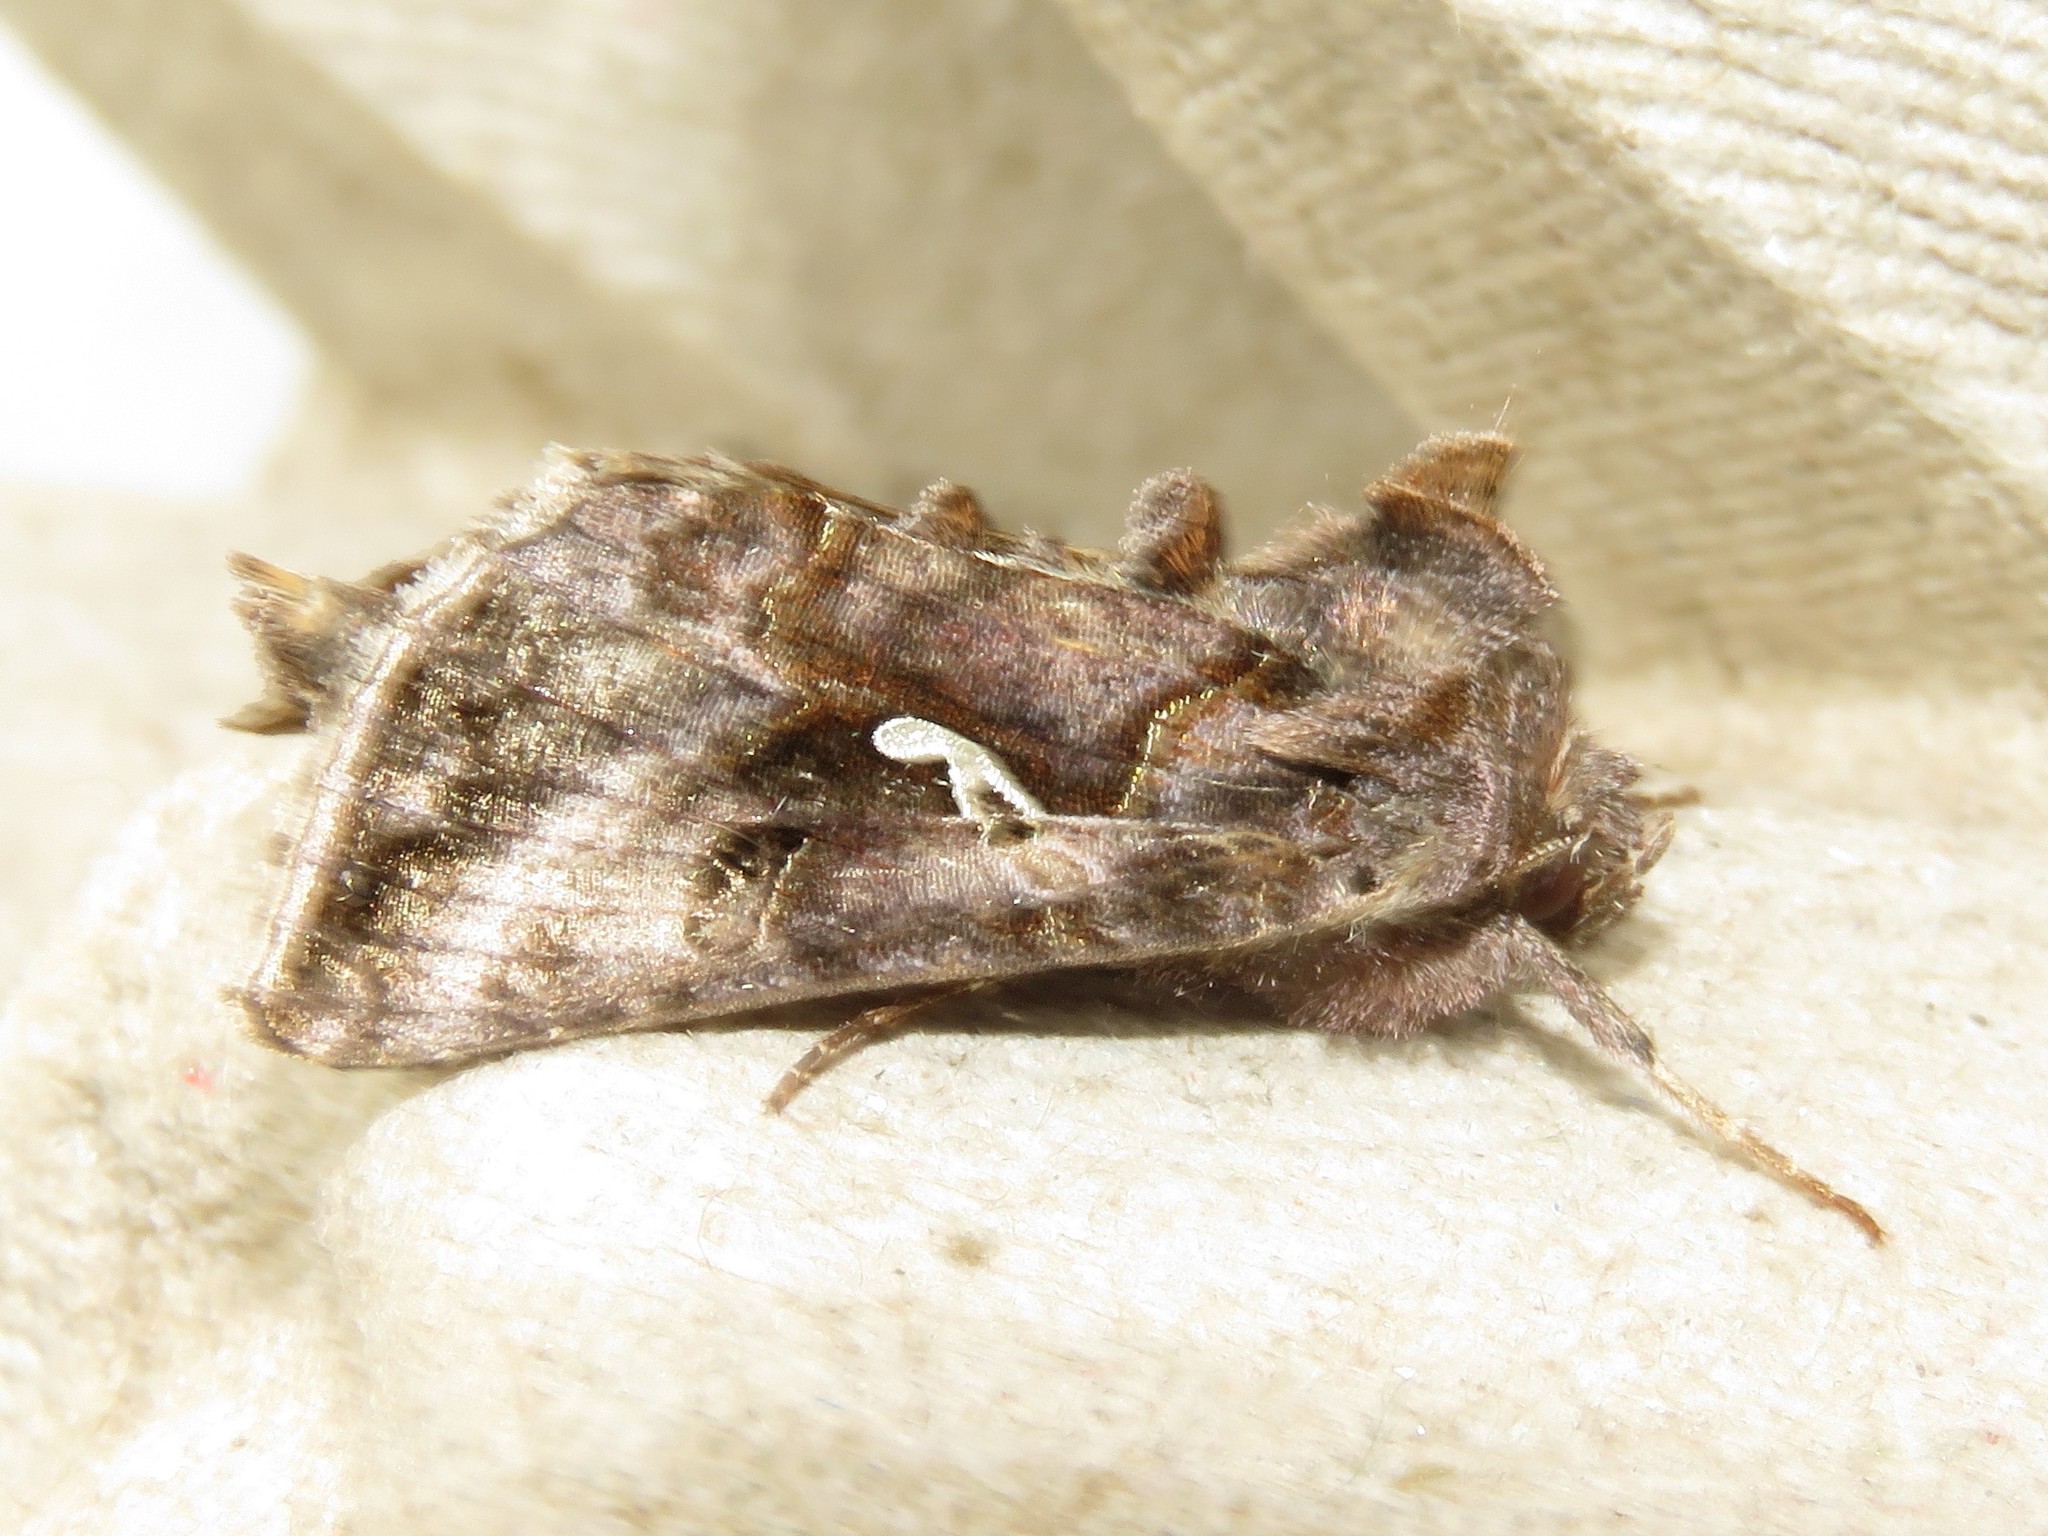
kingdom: Animalia
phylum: Arthropoda
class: Insecta
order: Lepidoptera
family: Noctuidae
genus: Autographa
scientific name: Autographa precationis
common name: Common looper moth
